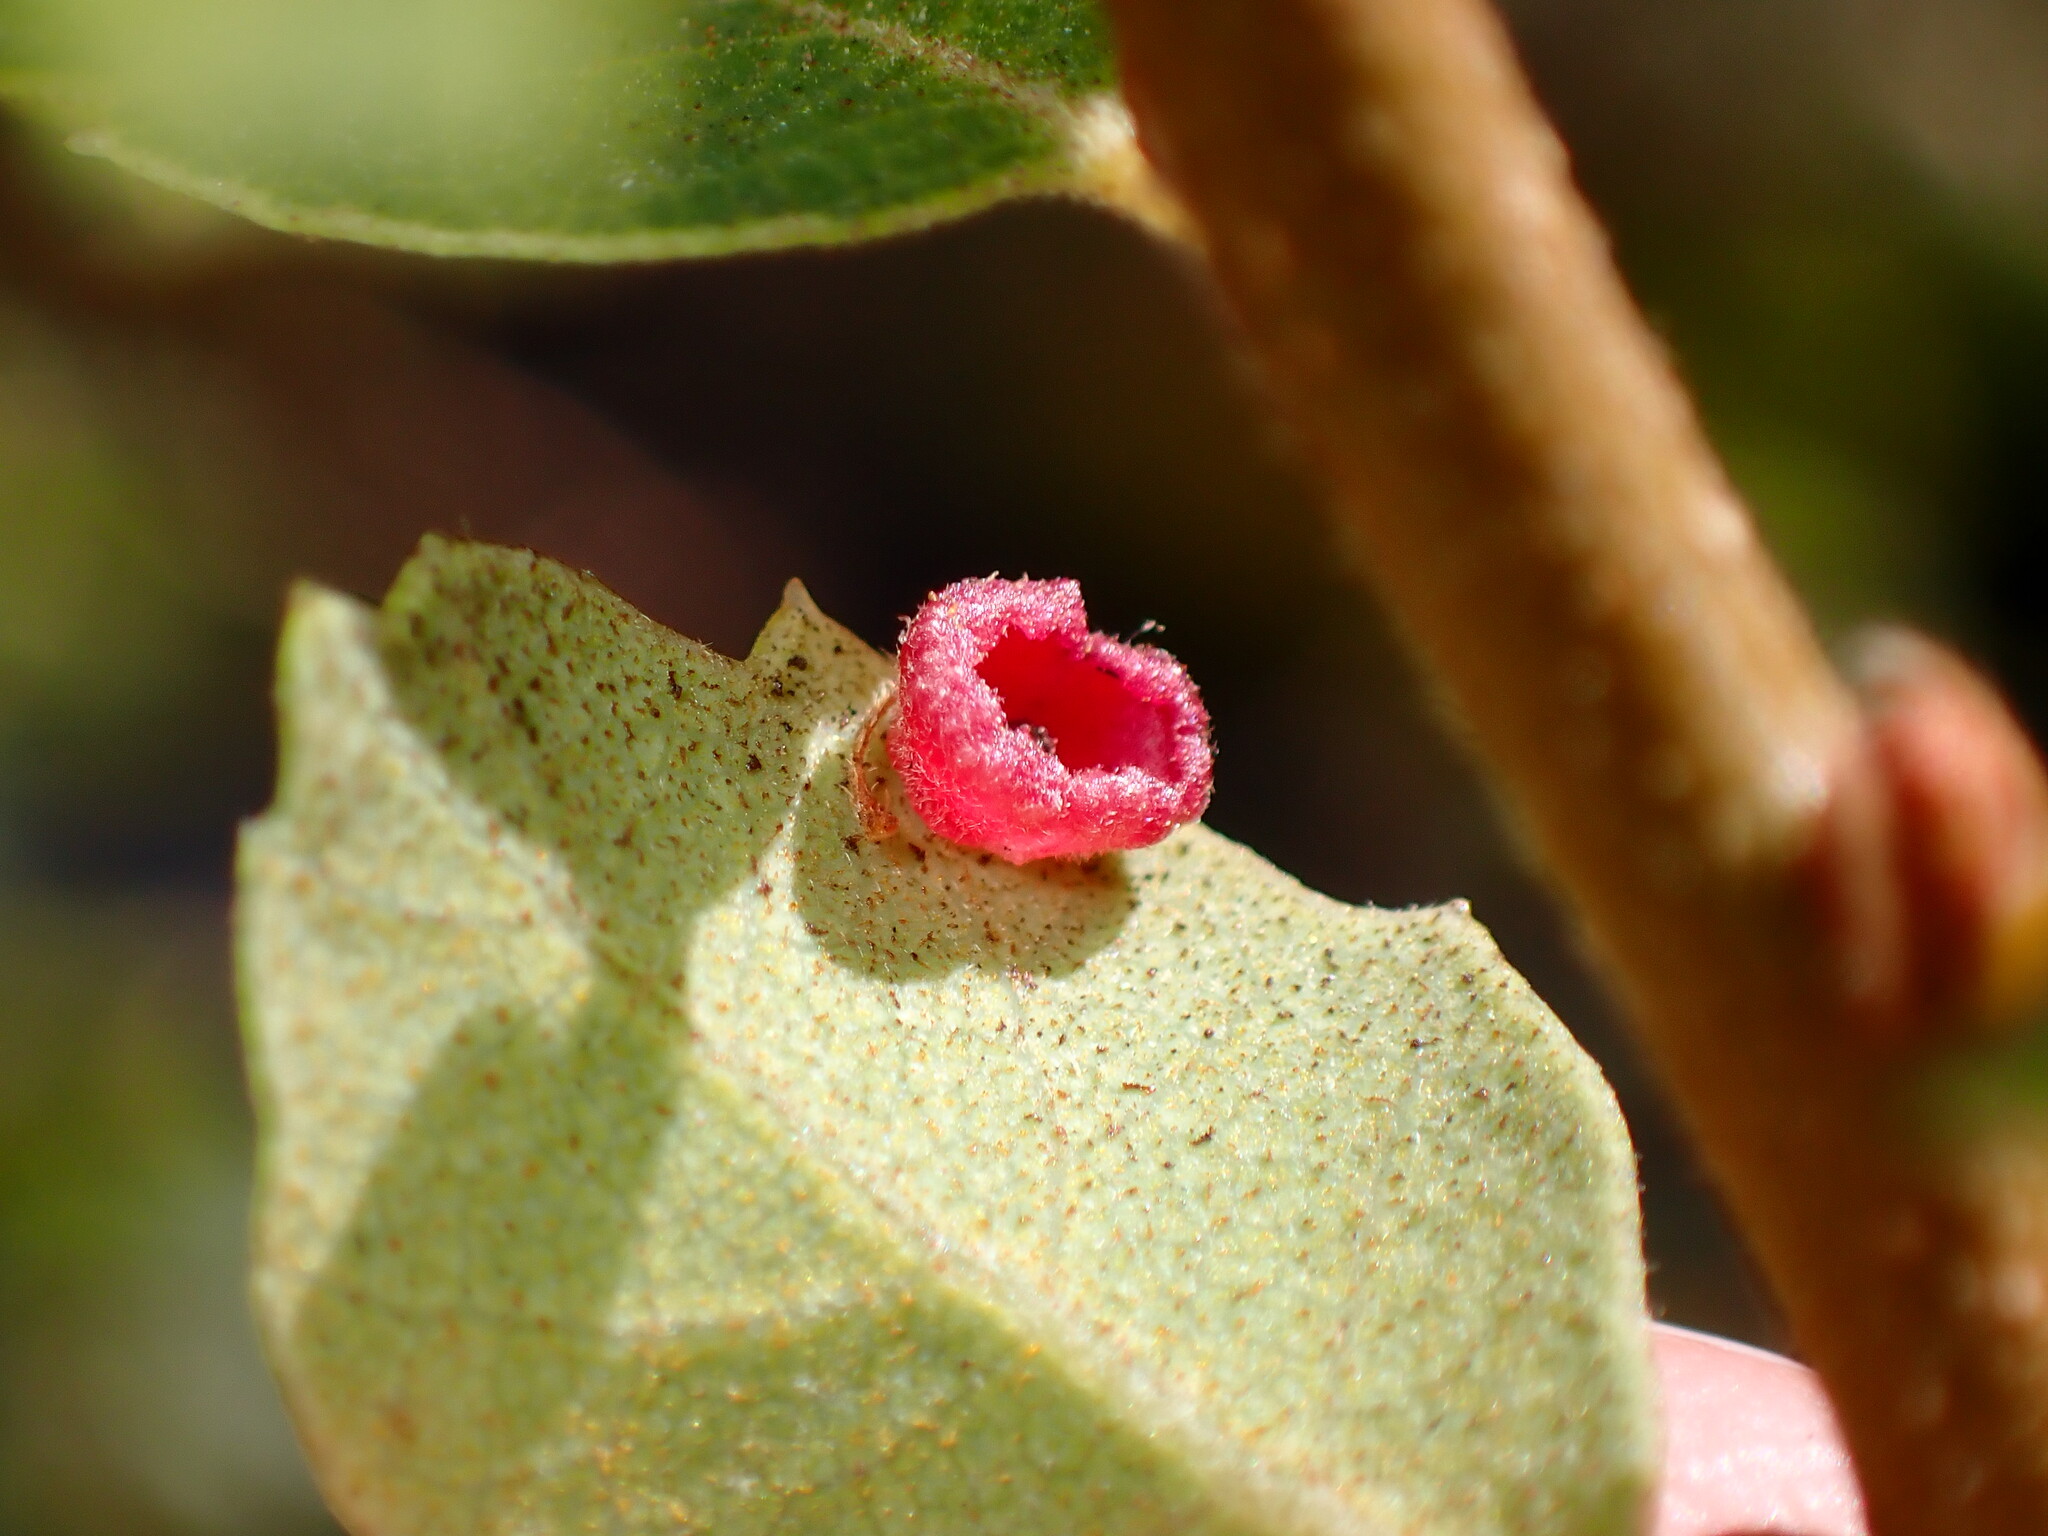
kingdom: Animalia
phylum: Arthropoda
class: Insecta
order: Hymenoptera
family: Cynipidae
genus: Andricus
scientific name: Andricus
